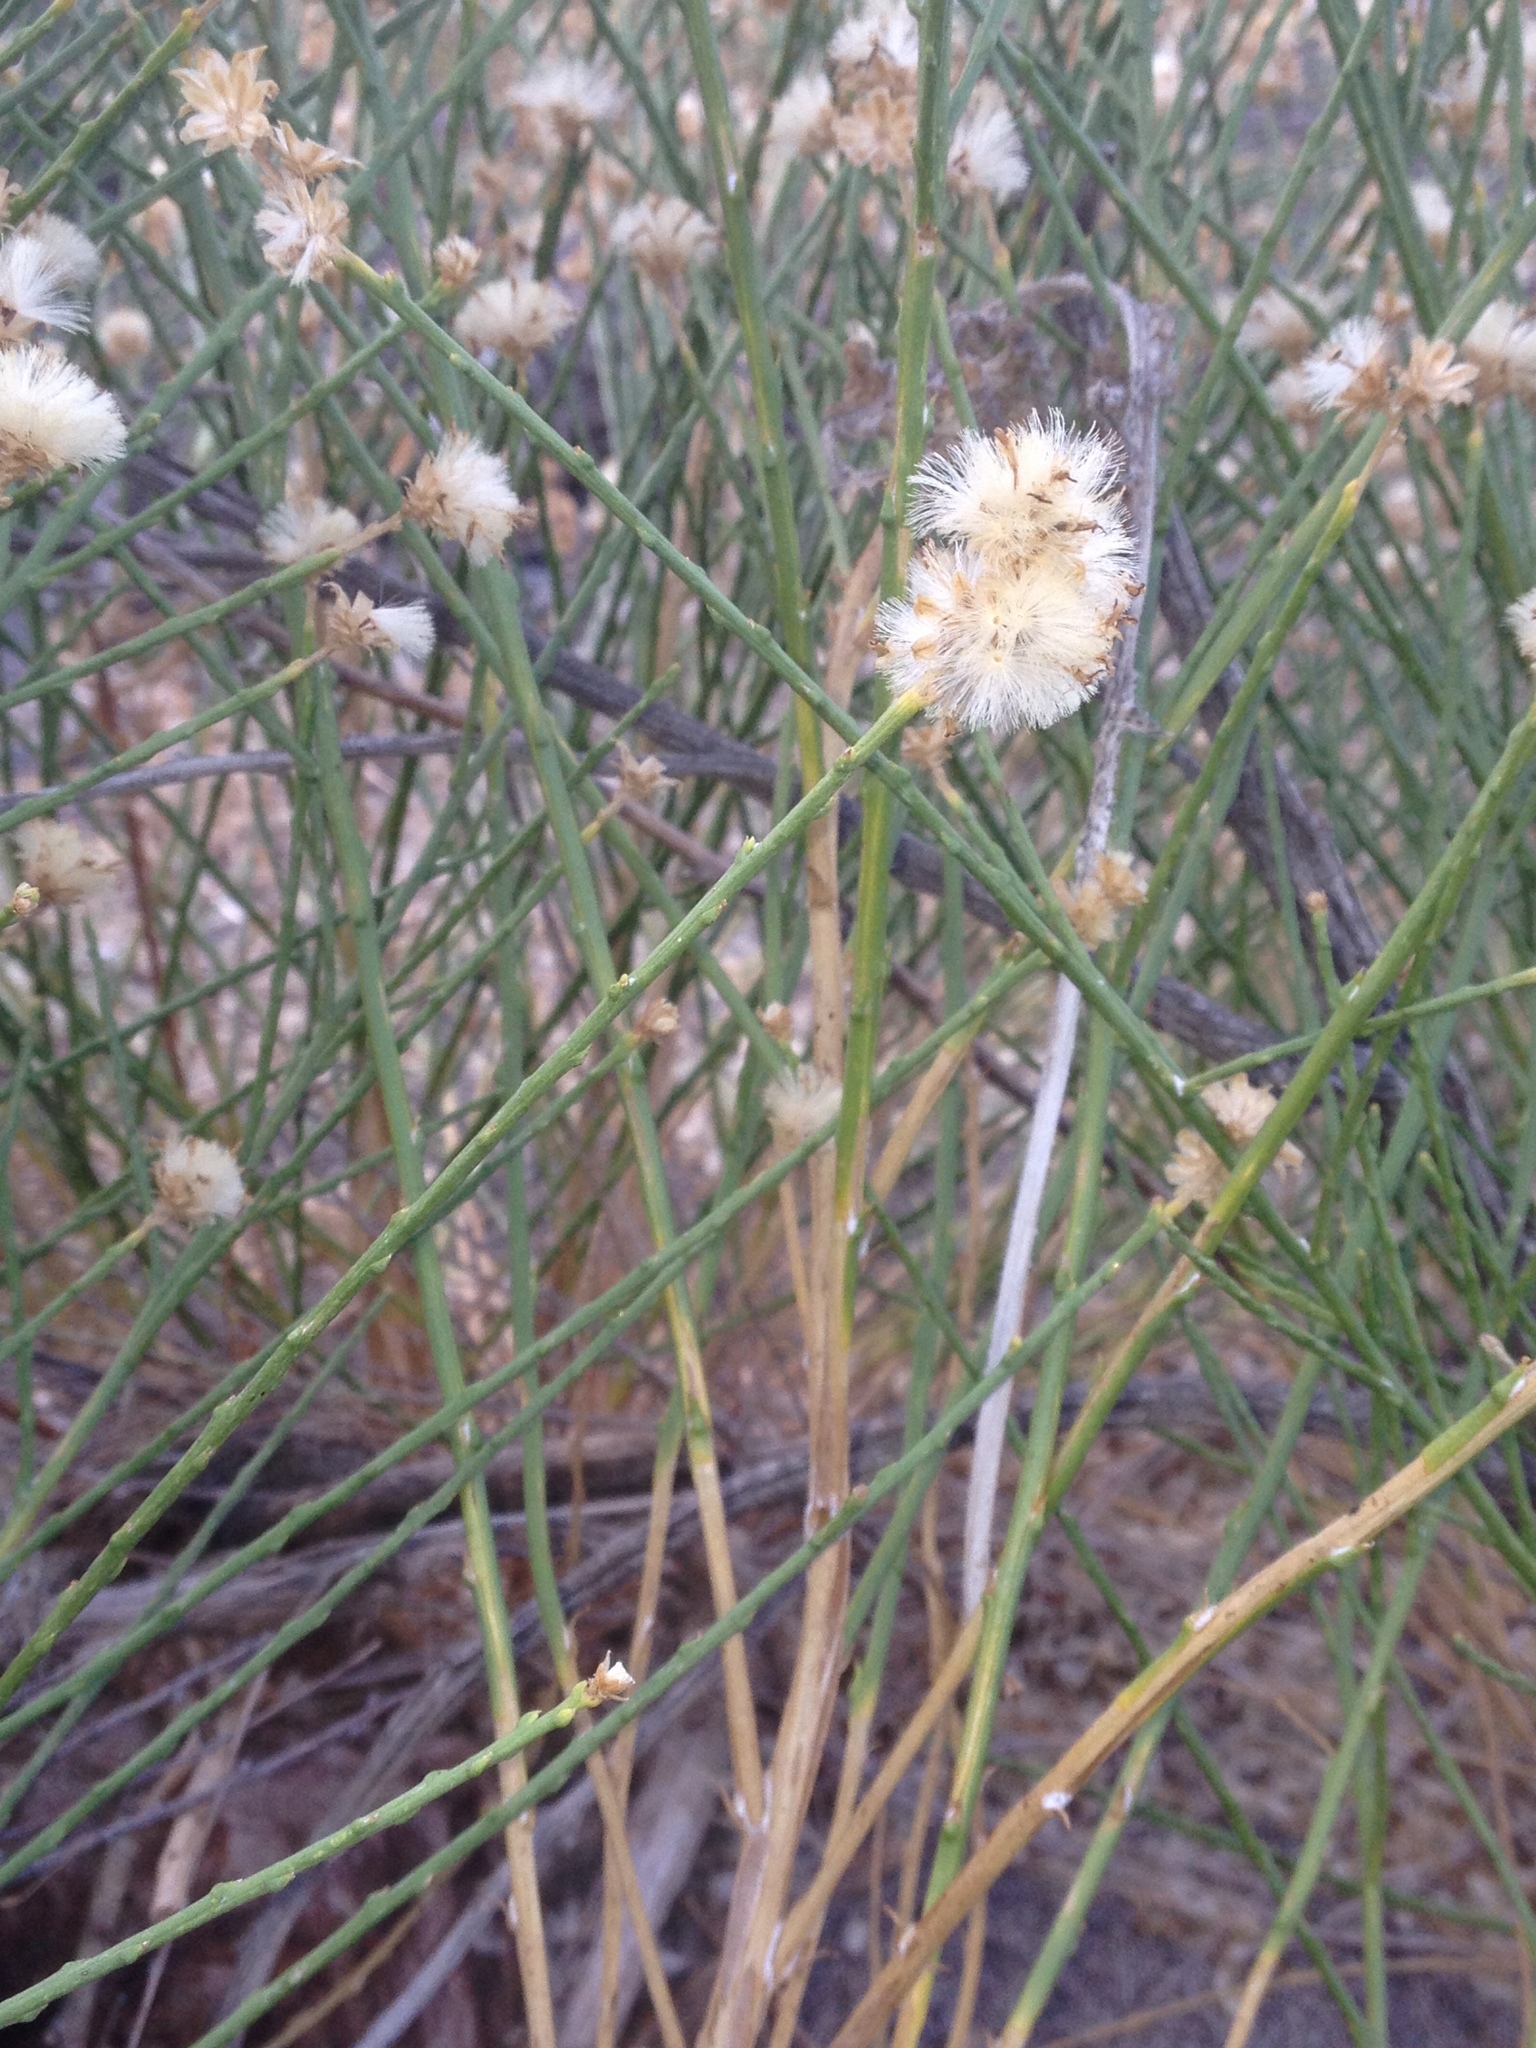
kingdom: Plantae
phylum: Tracheophyta
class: Magnoliopsida
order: Asterales
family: Asteraceae
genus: Lepidospartum
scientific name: Lepidospartum squamatum
